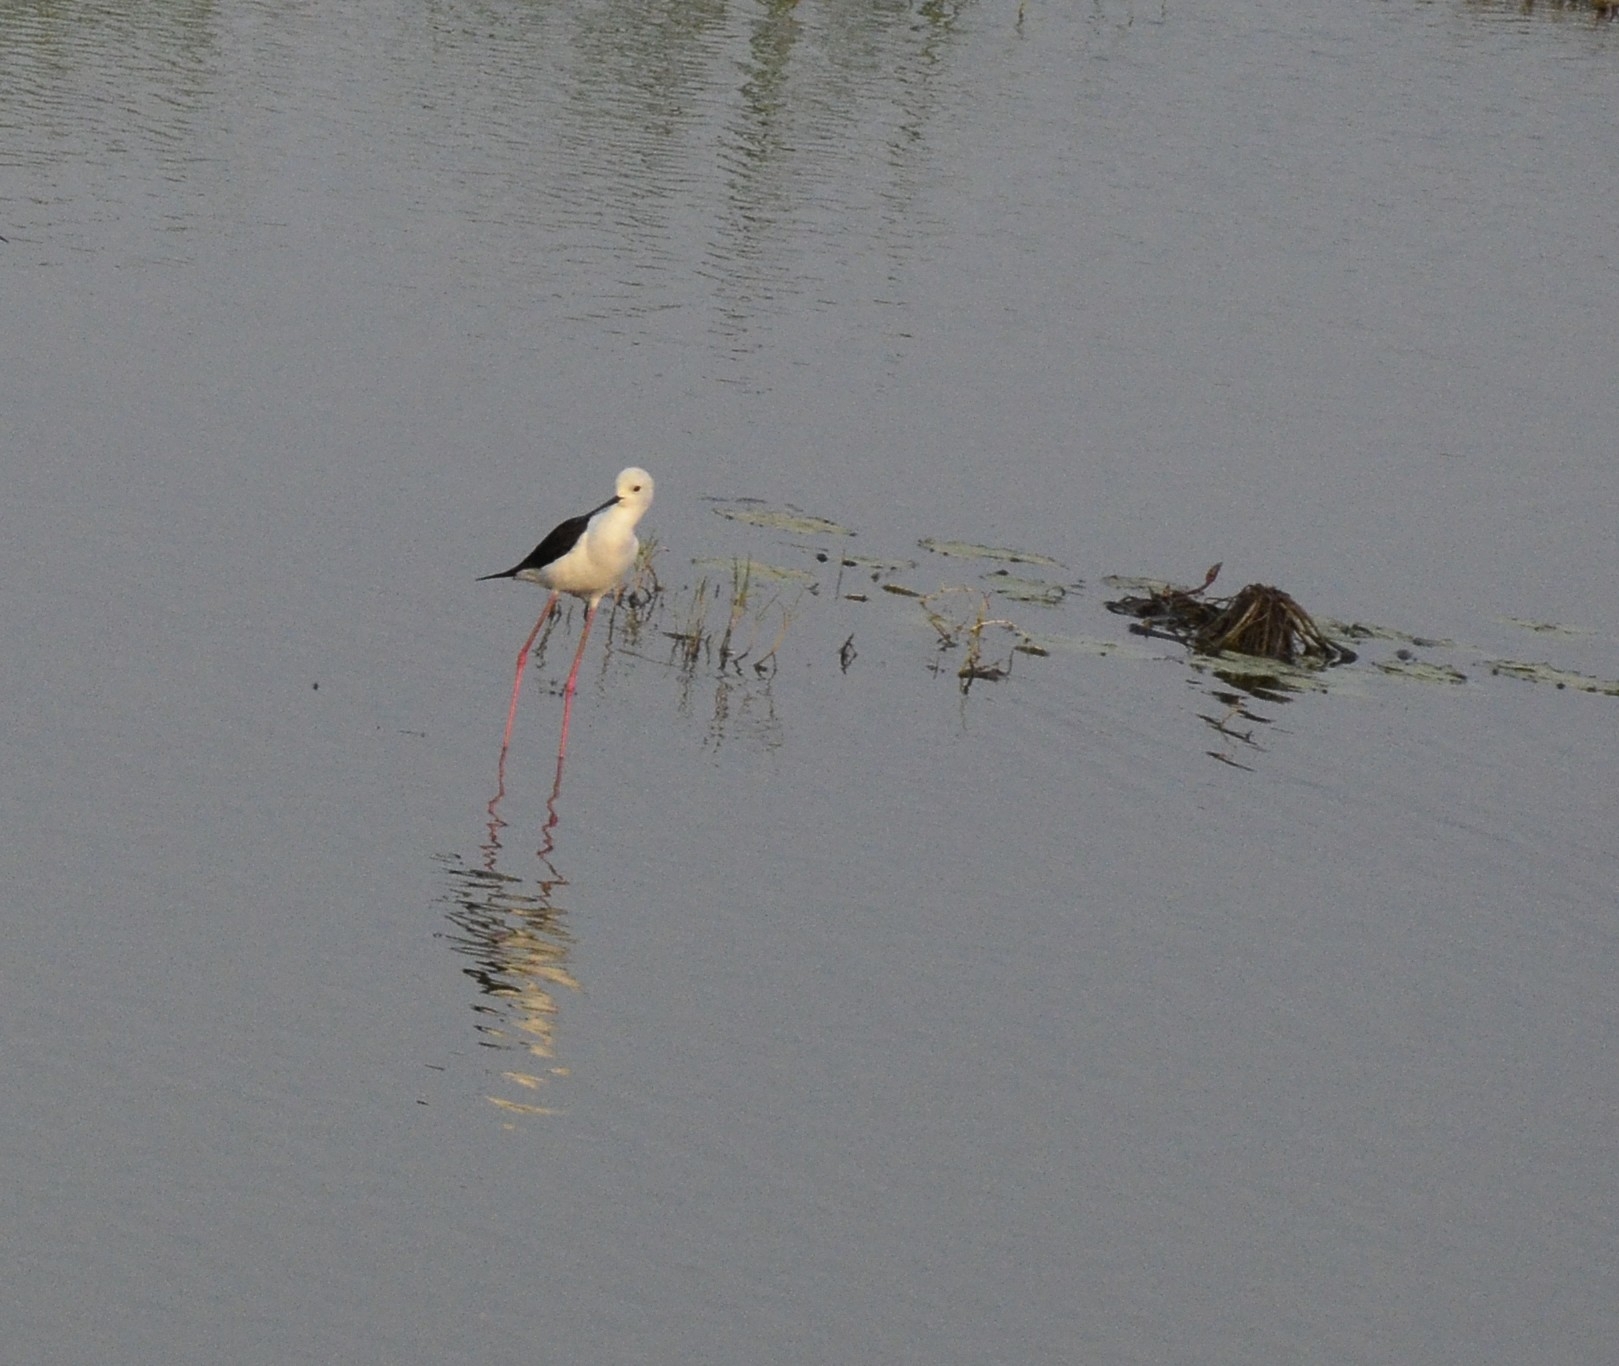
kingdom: Animalia
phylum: Chordata
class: Aves
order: Charadriiformes
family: Recurvirostridae
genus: Himantopus
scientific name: Himantopus himantopus
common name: Black-winged stilt
